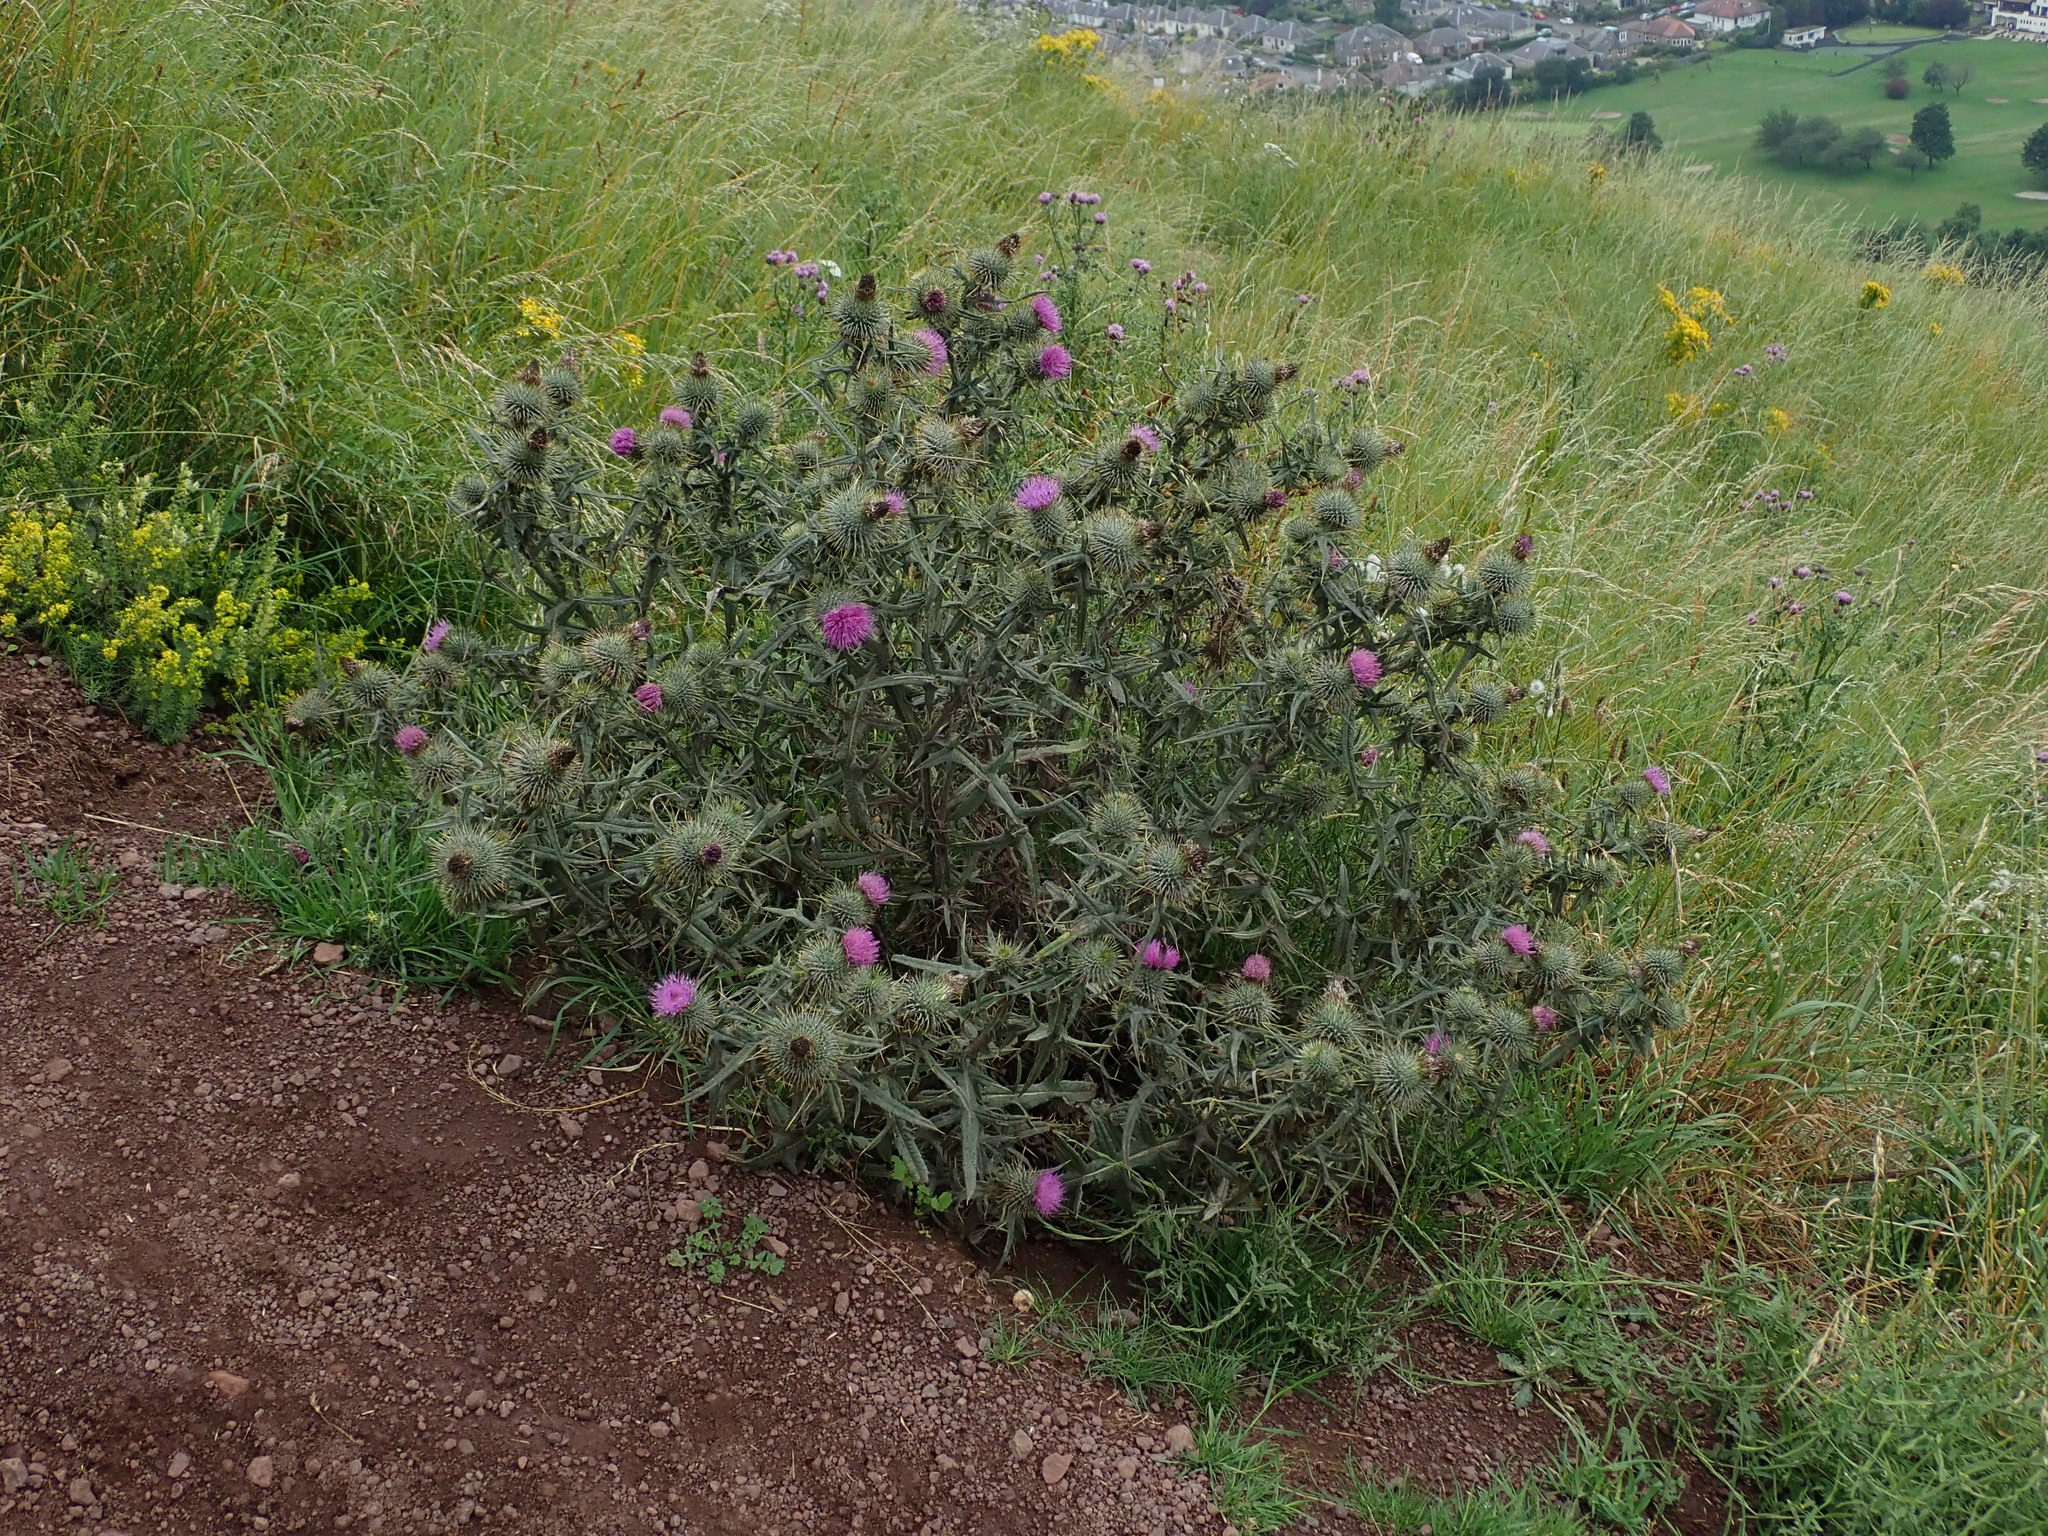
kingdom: Plantae
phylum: Tracheophyta
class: Magnoliopsida
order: Asterales
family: Asteraceae
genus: Cirsium
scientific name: Cirsium vulgare
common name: Bull thistle
